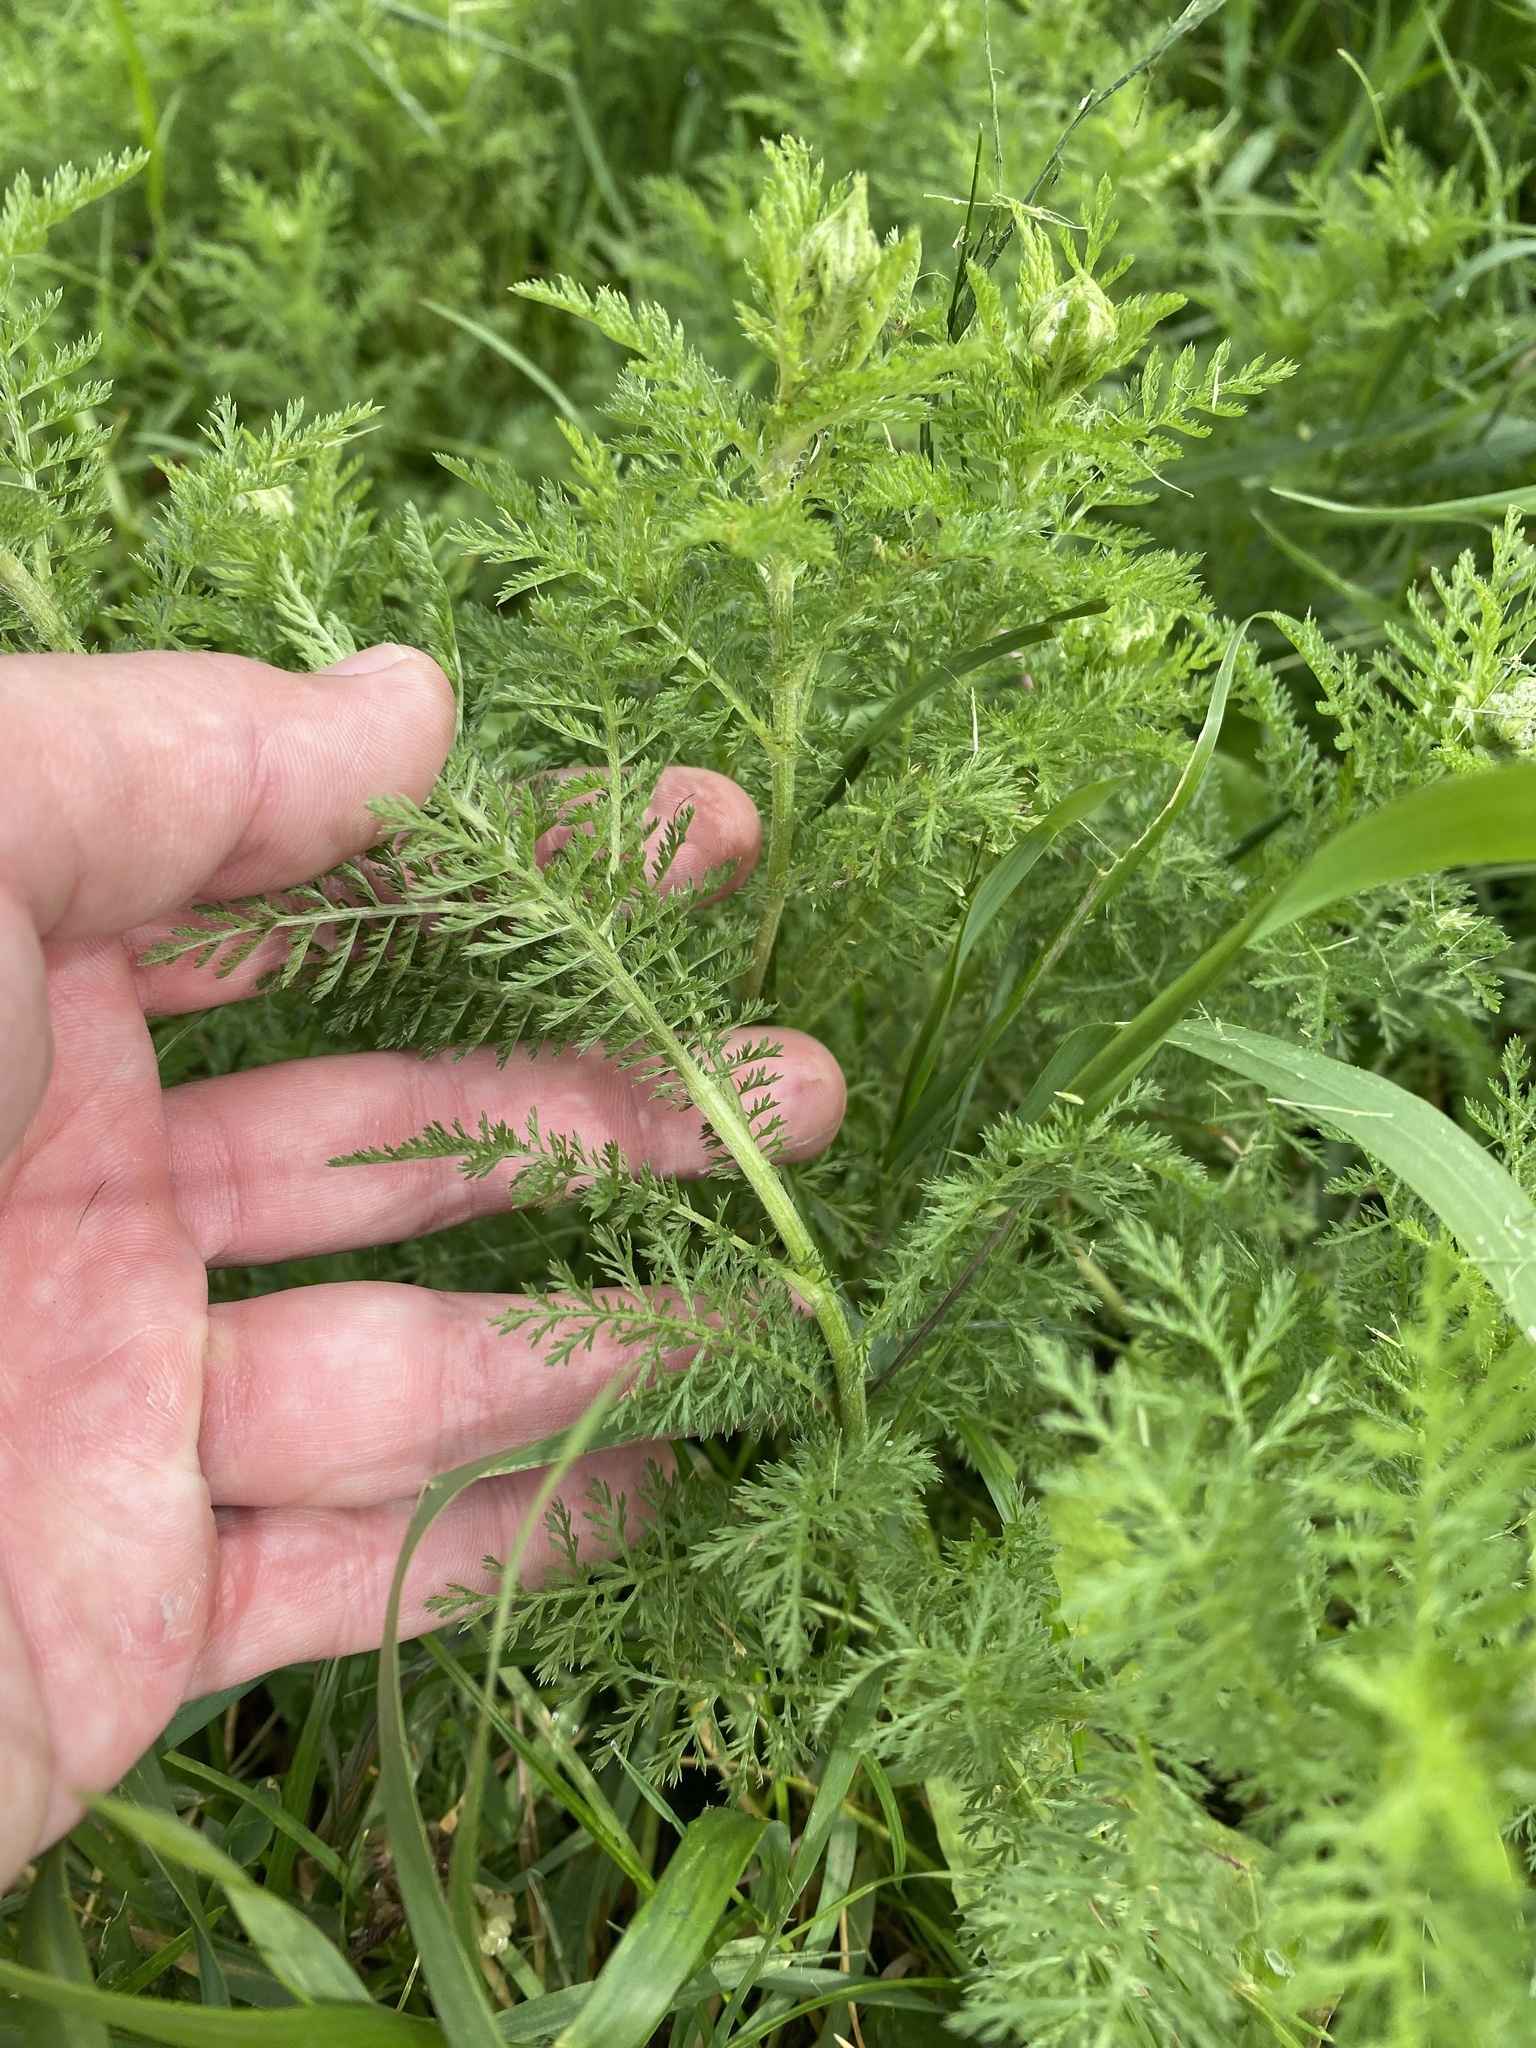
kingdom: Plantae
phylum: Tracheophyta
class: Magnoliopsida
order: Asterales
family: Asteraceae
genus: Achillea
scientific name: Achillea nobilis
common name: Noble yarrow
